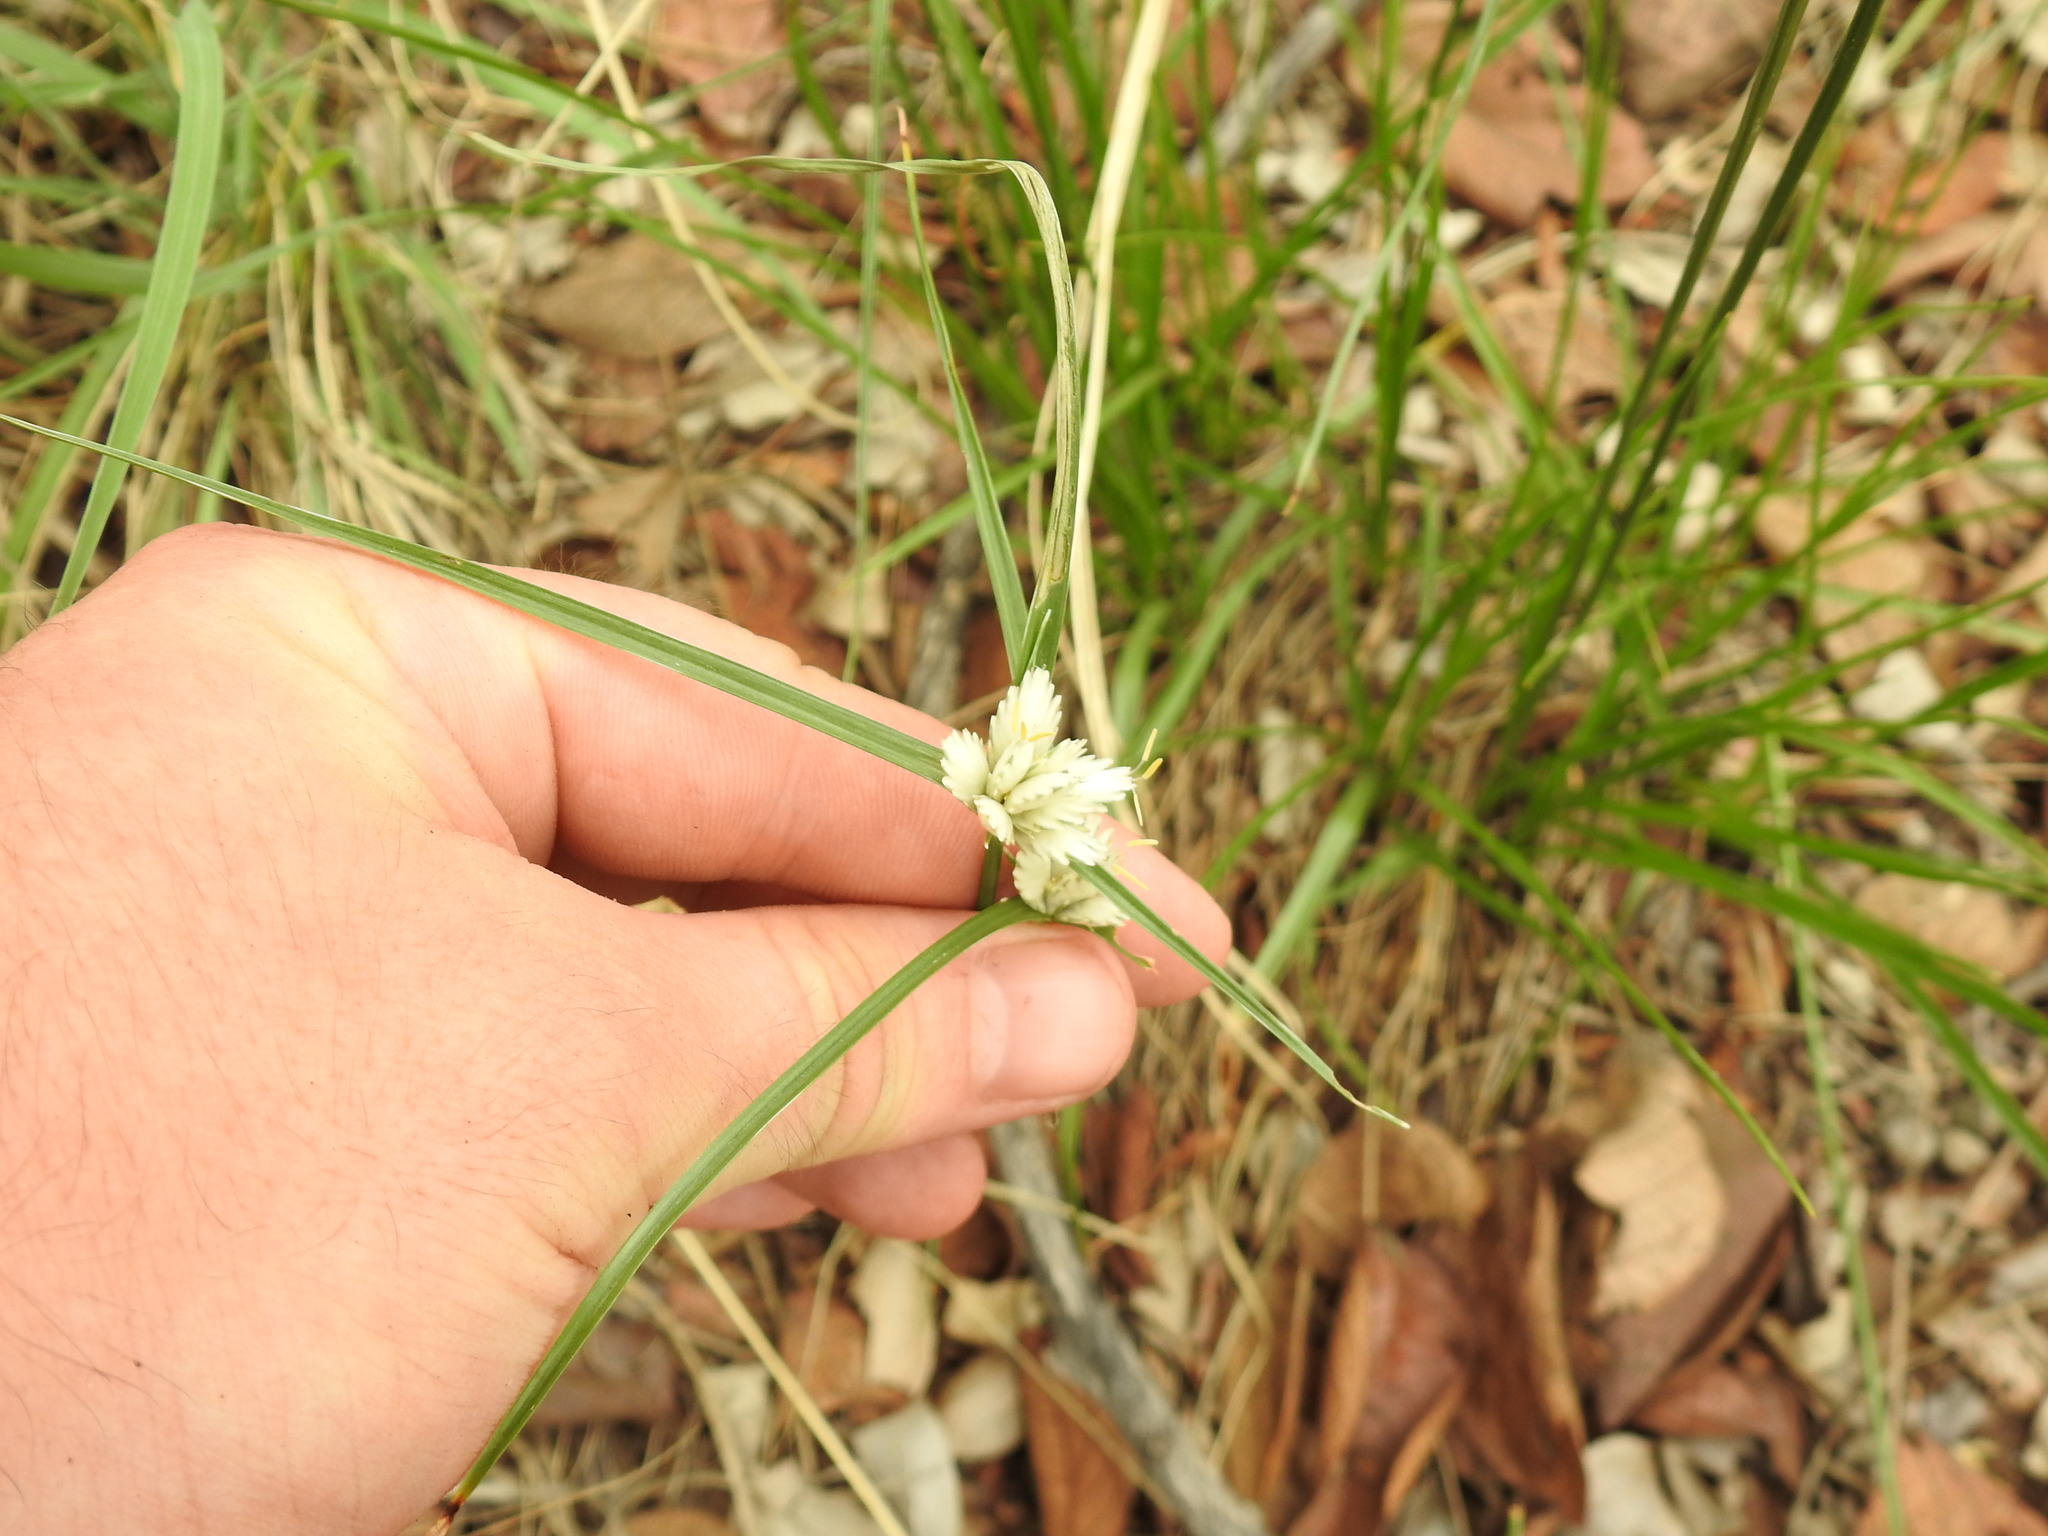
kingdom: Plantae
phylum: Tracheophyta
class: Liliopsida
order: Poales
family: Cyperaceae
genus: Cyperus
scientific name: Cyperus niveus
